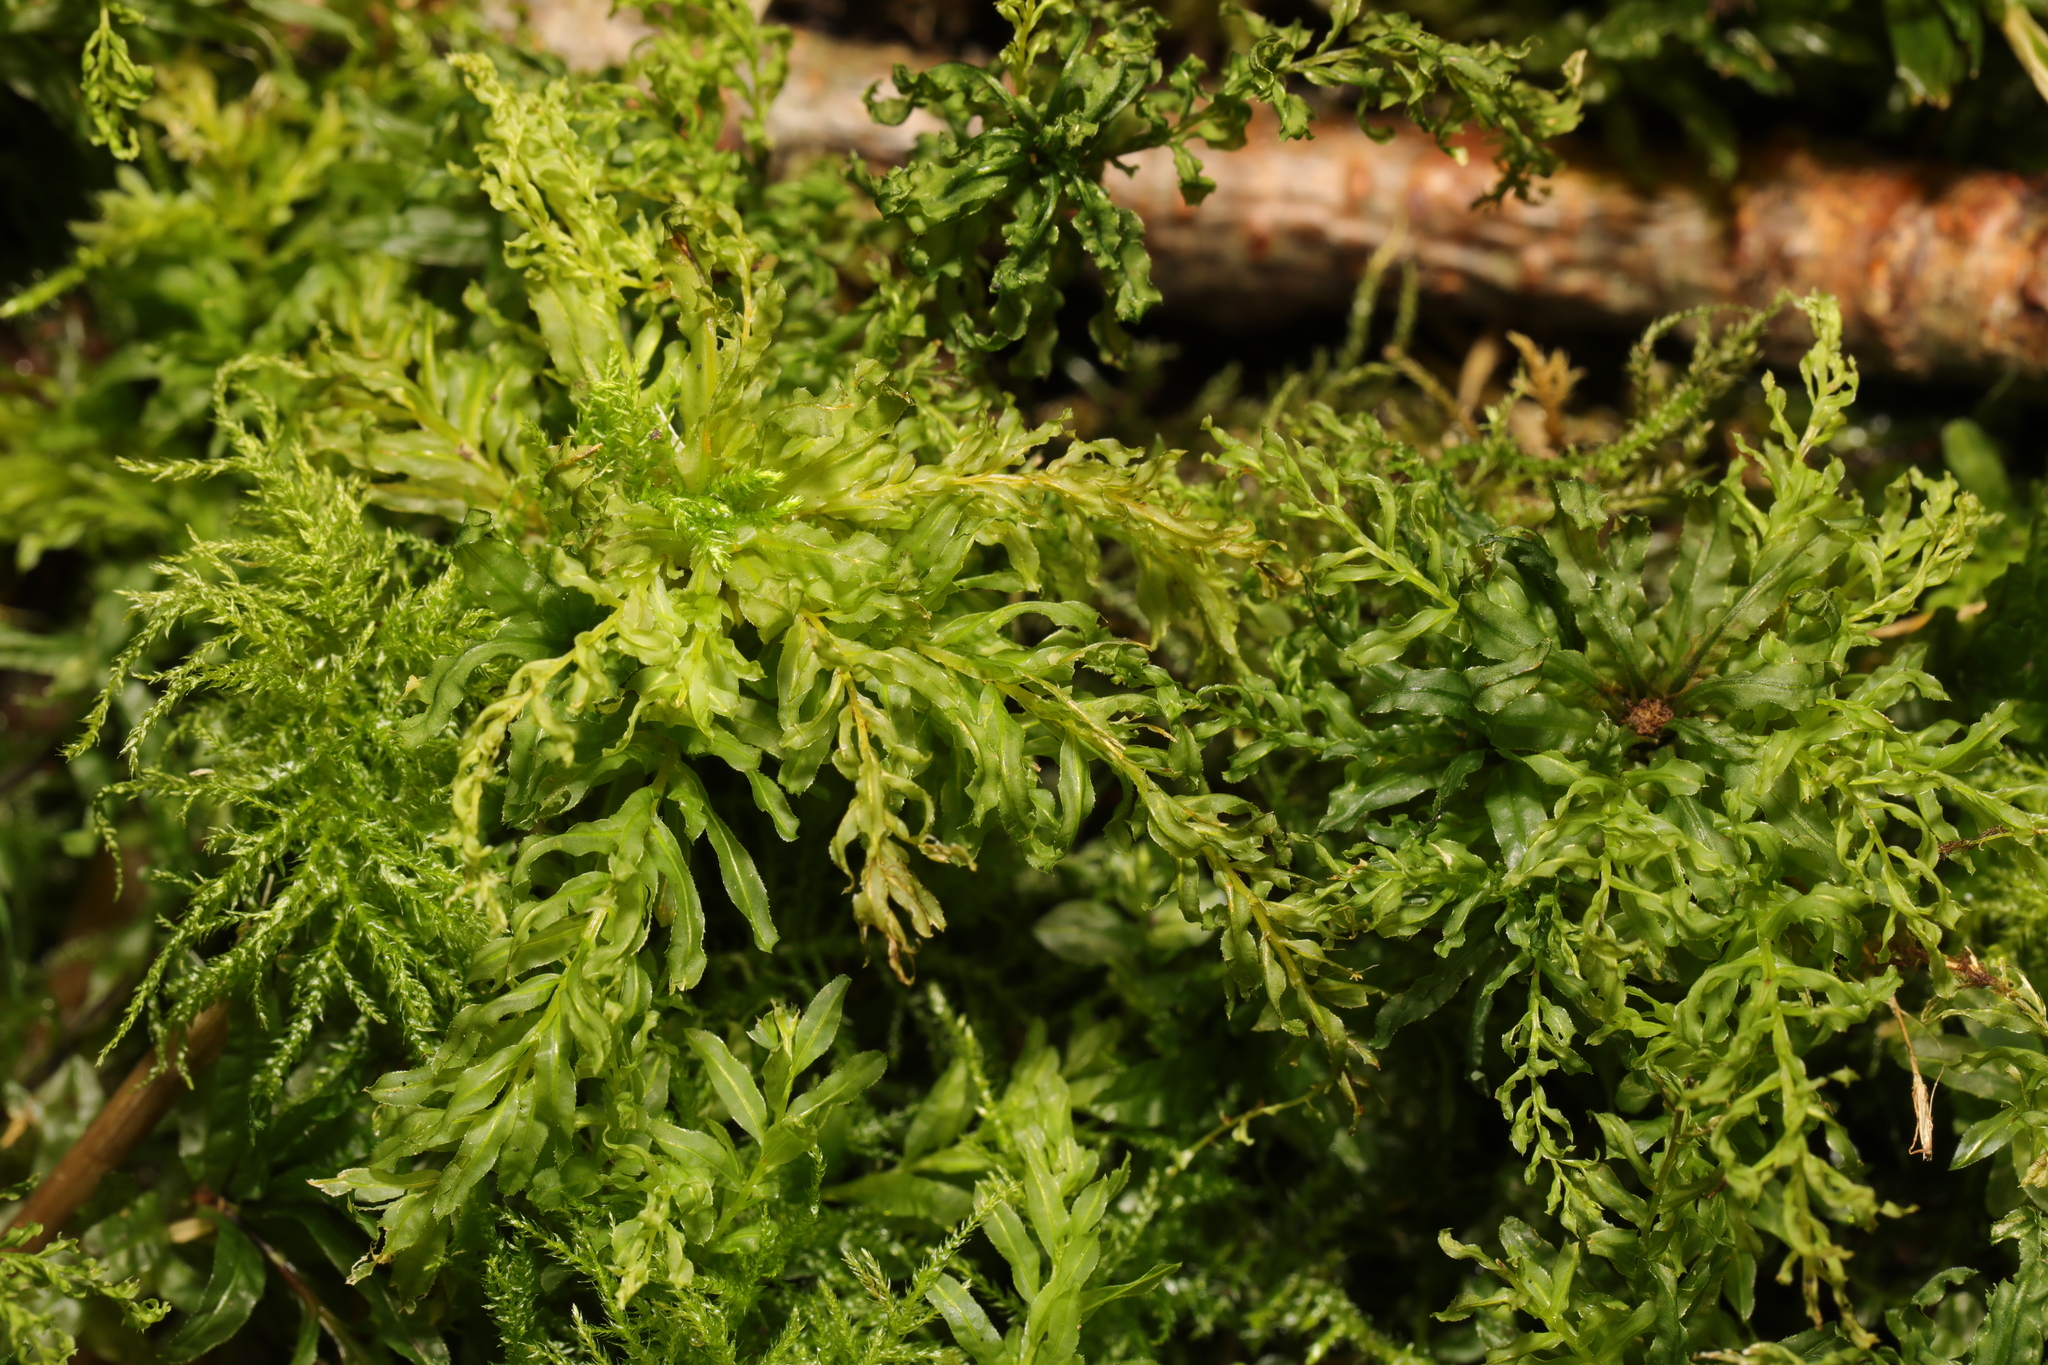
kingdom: Plantae
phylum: Bryophyta
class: Bryopsida
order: Bryales
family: Mniaceae
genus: Plagiomnium
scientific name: Plagiomnium undulatum
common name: Hart's-tongue thyme-moss
